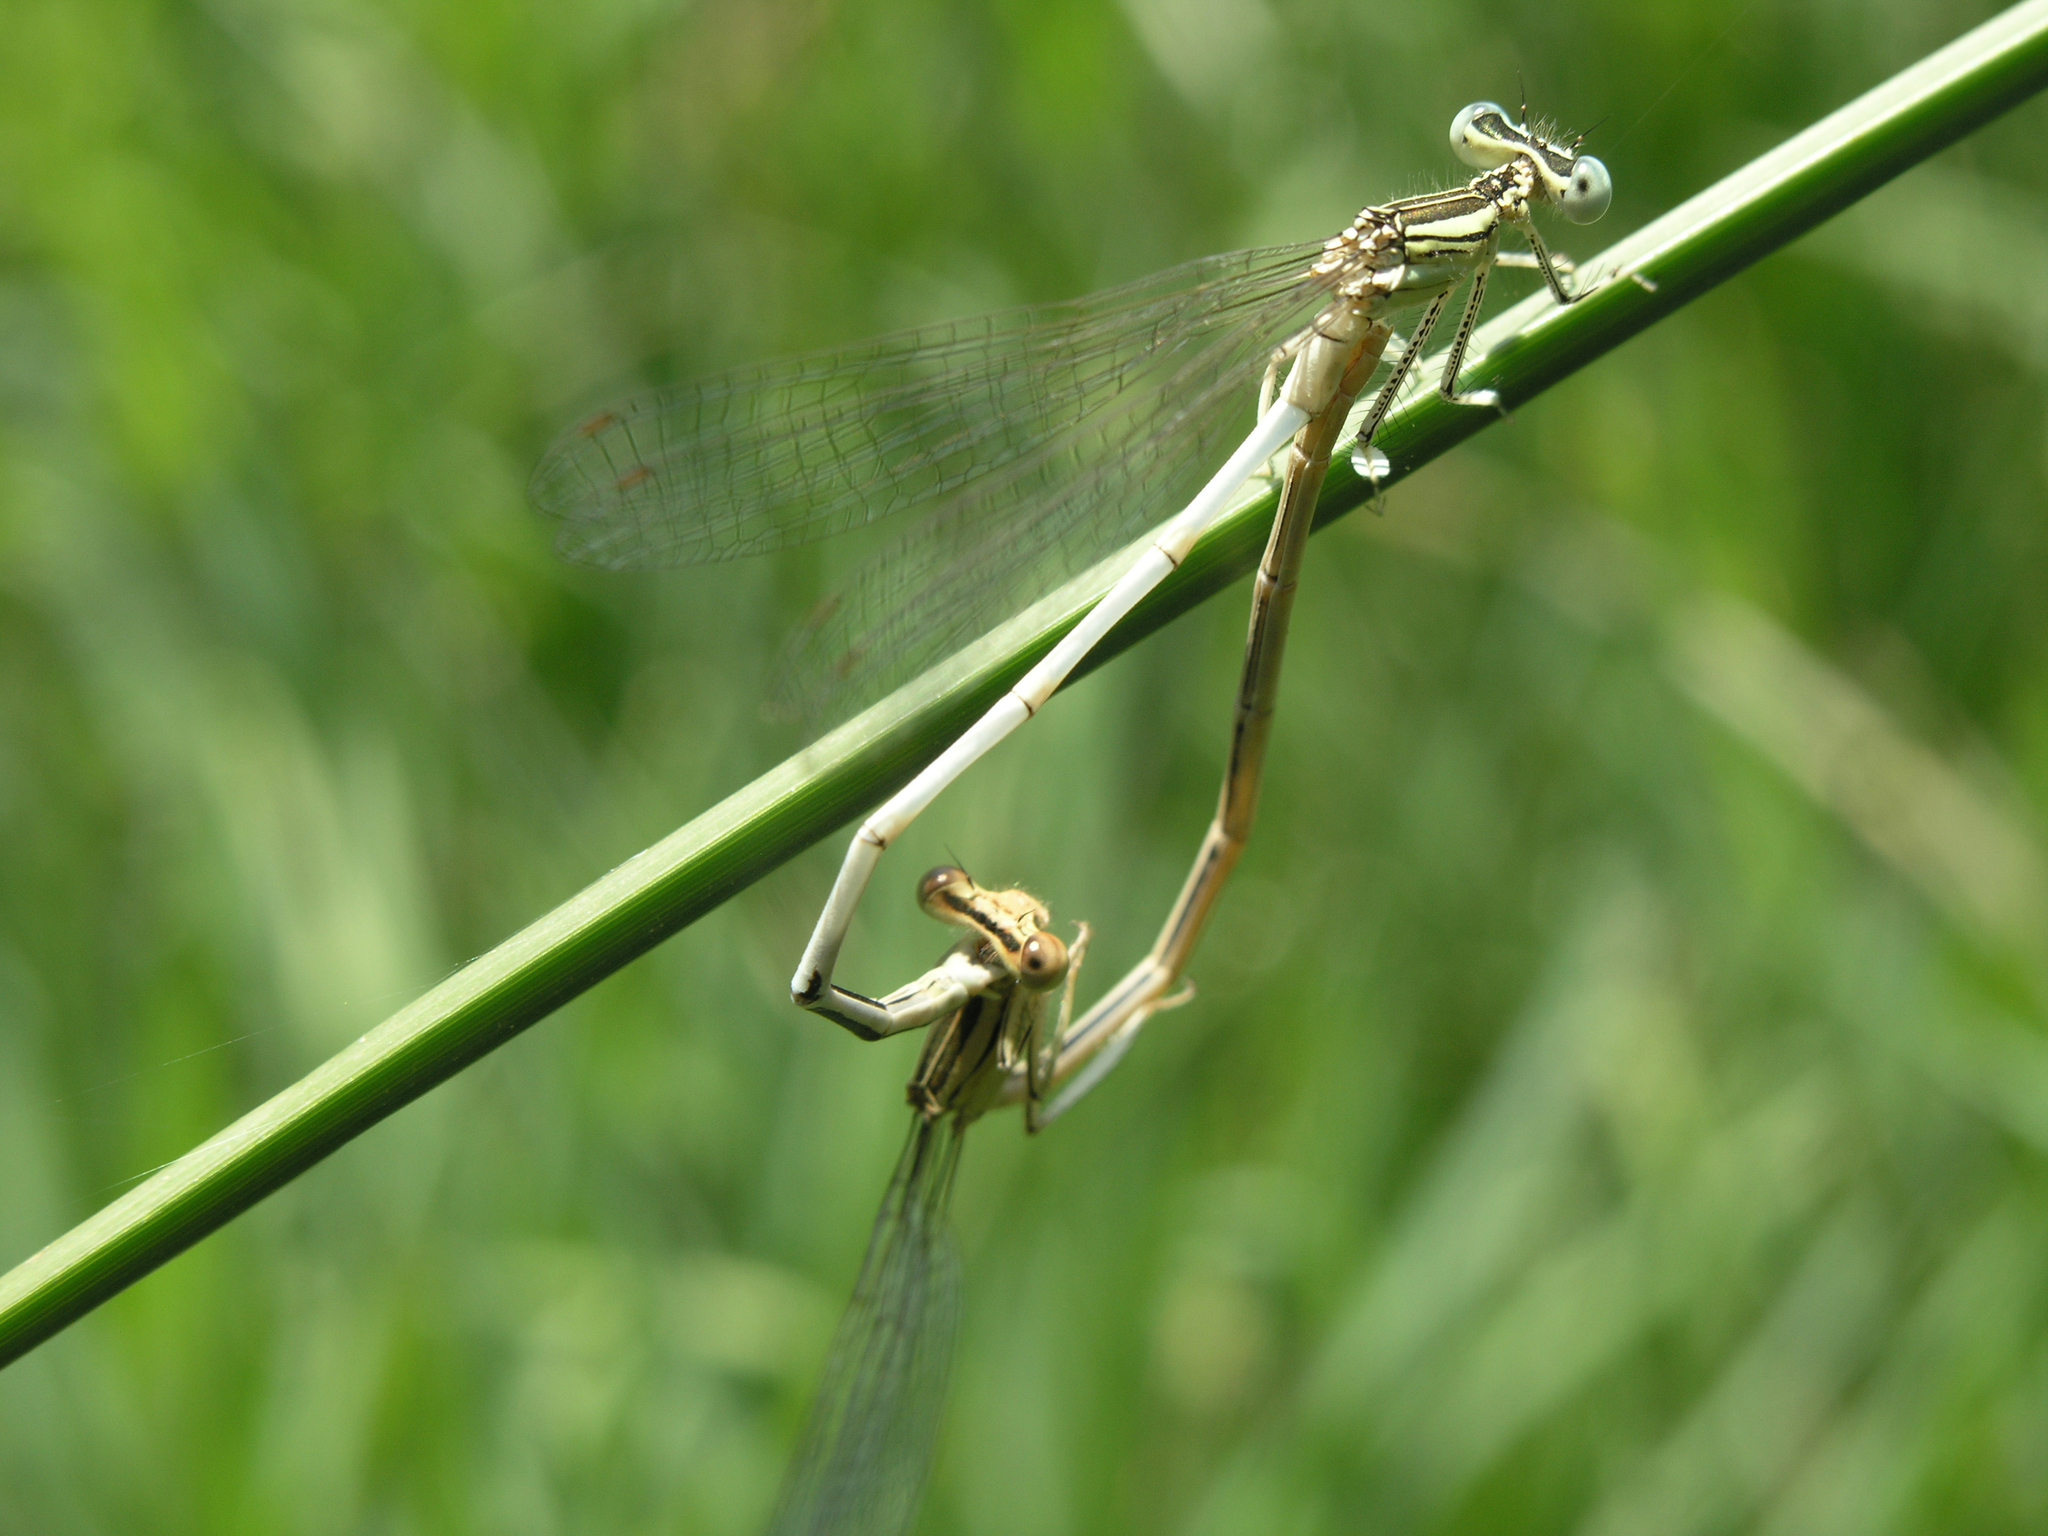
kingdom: Animalia
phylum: Arthropoda
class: Insecta
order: Odonata
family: Platycnemididae
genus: Platycnemis
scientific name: Platycnemis latipes
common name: White featherleg
